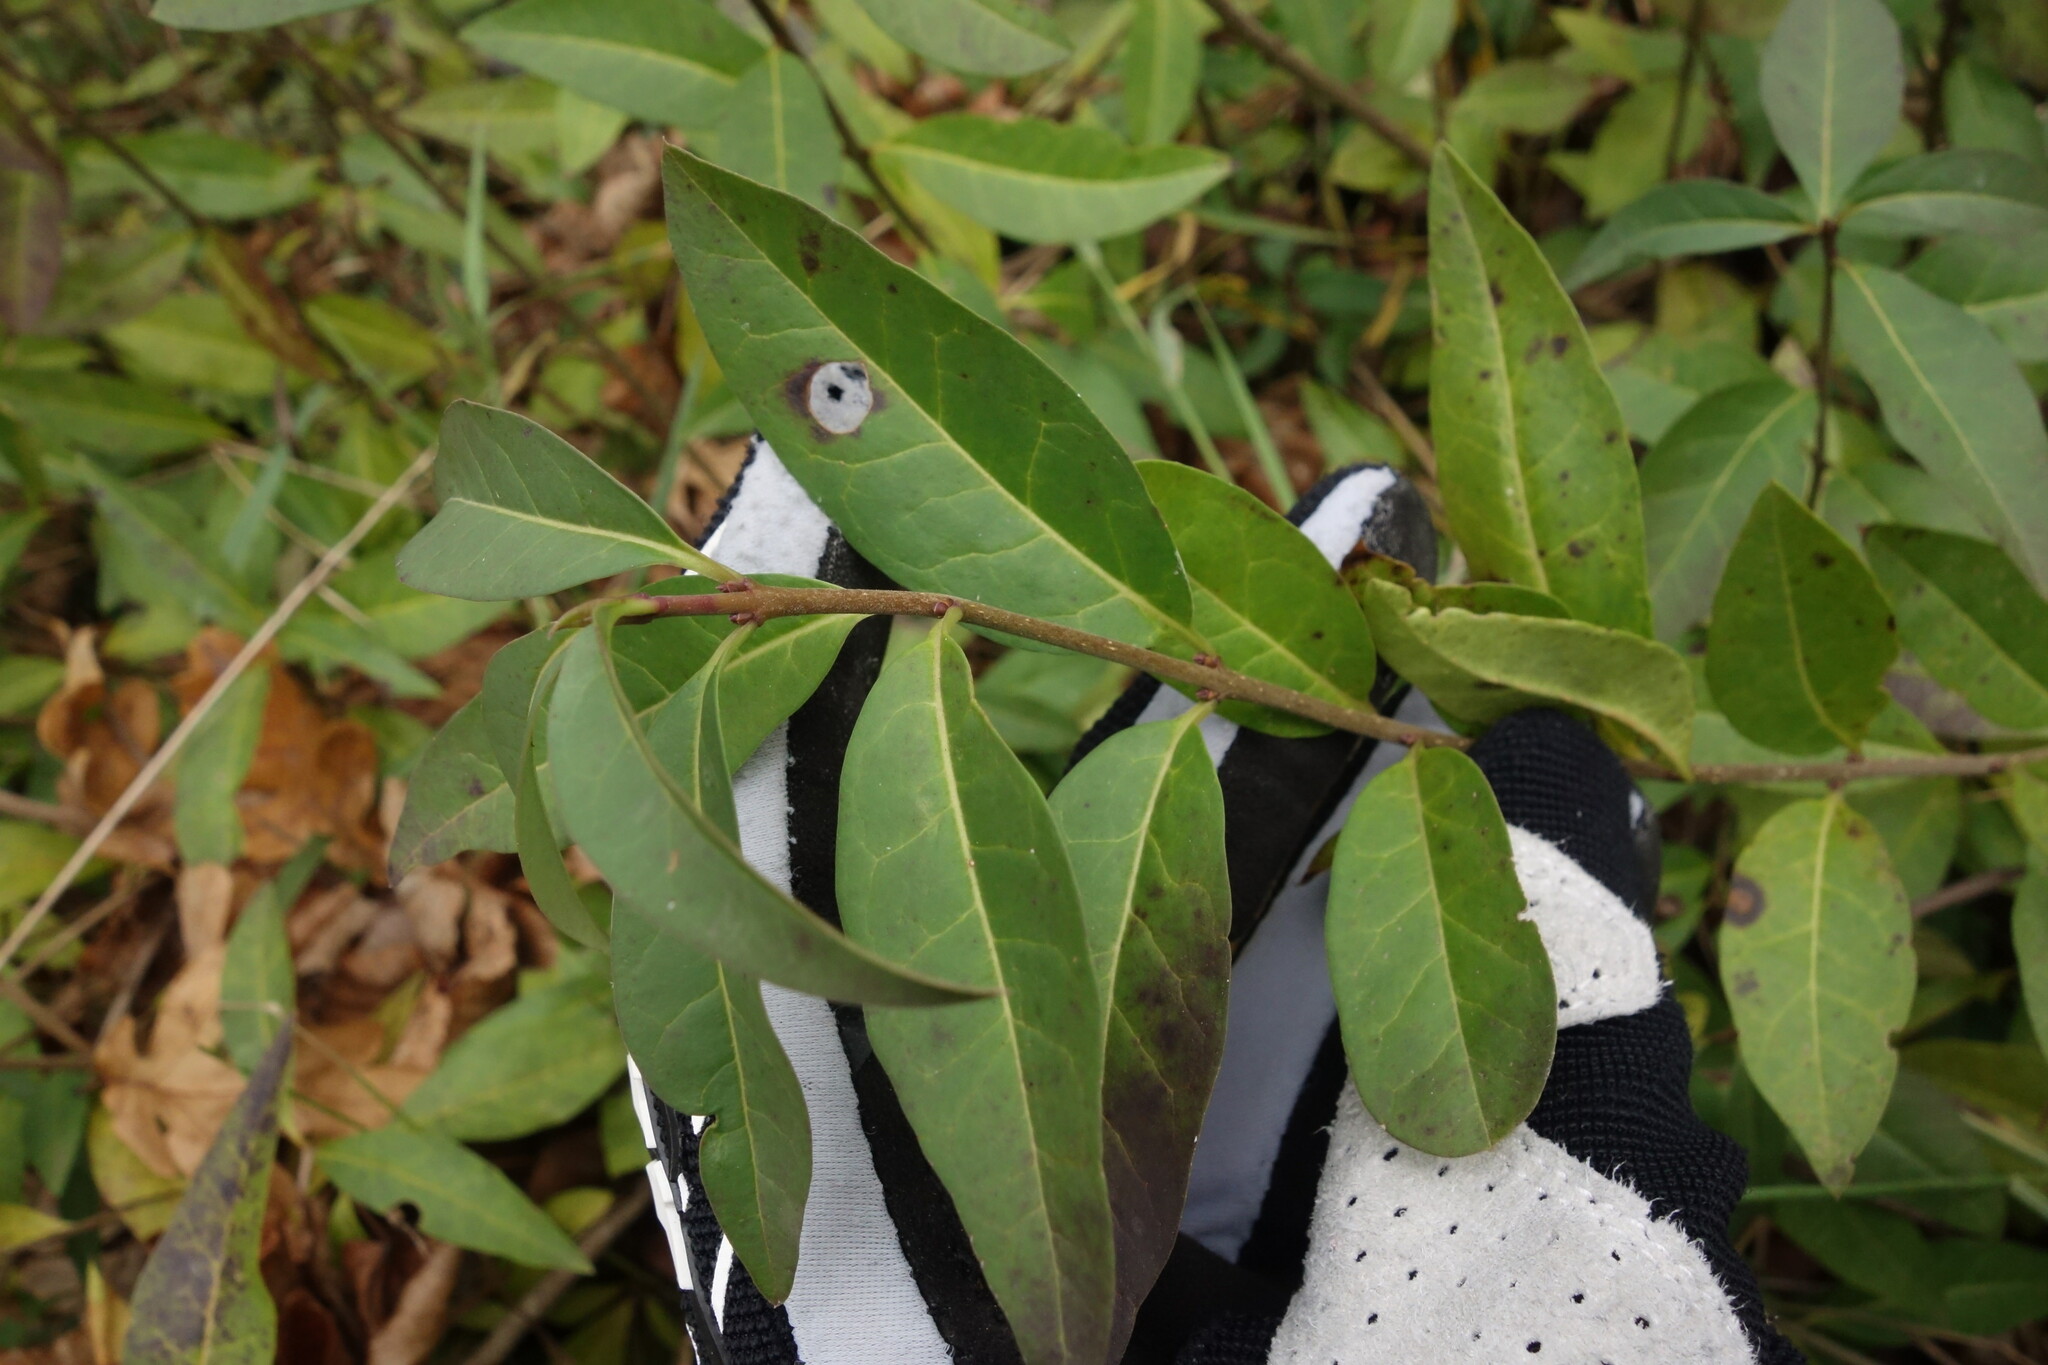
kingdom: Plantae
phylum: Tracheophyta
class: Magnoliopsida
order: Lamiales
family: Oleaceae
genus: Ligustrum
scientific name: Ligustrum vulgare
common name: Wild privet
